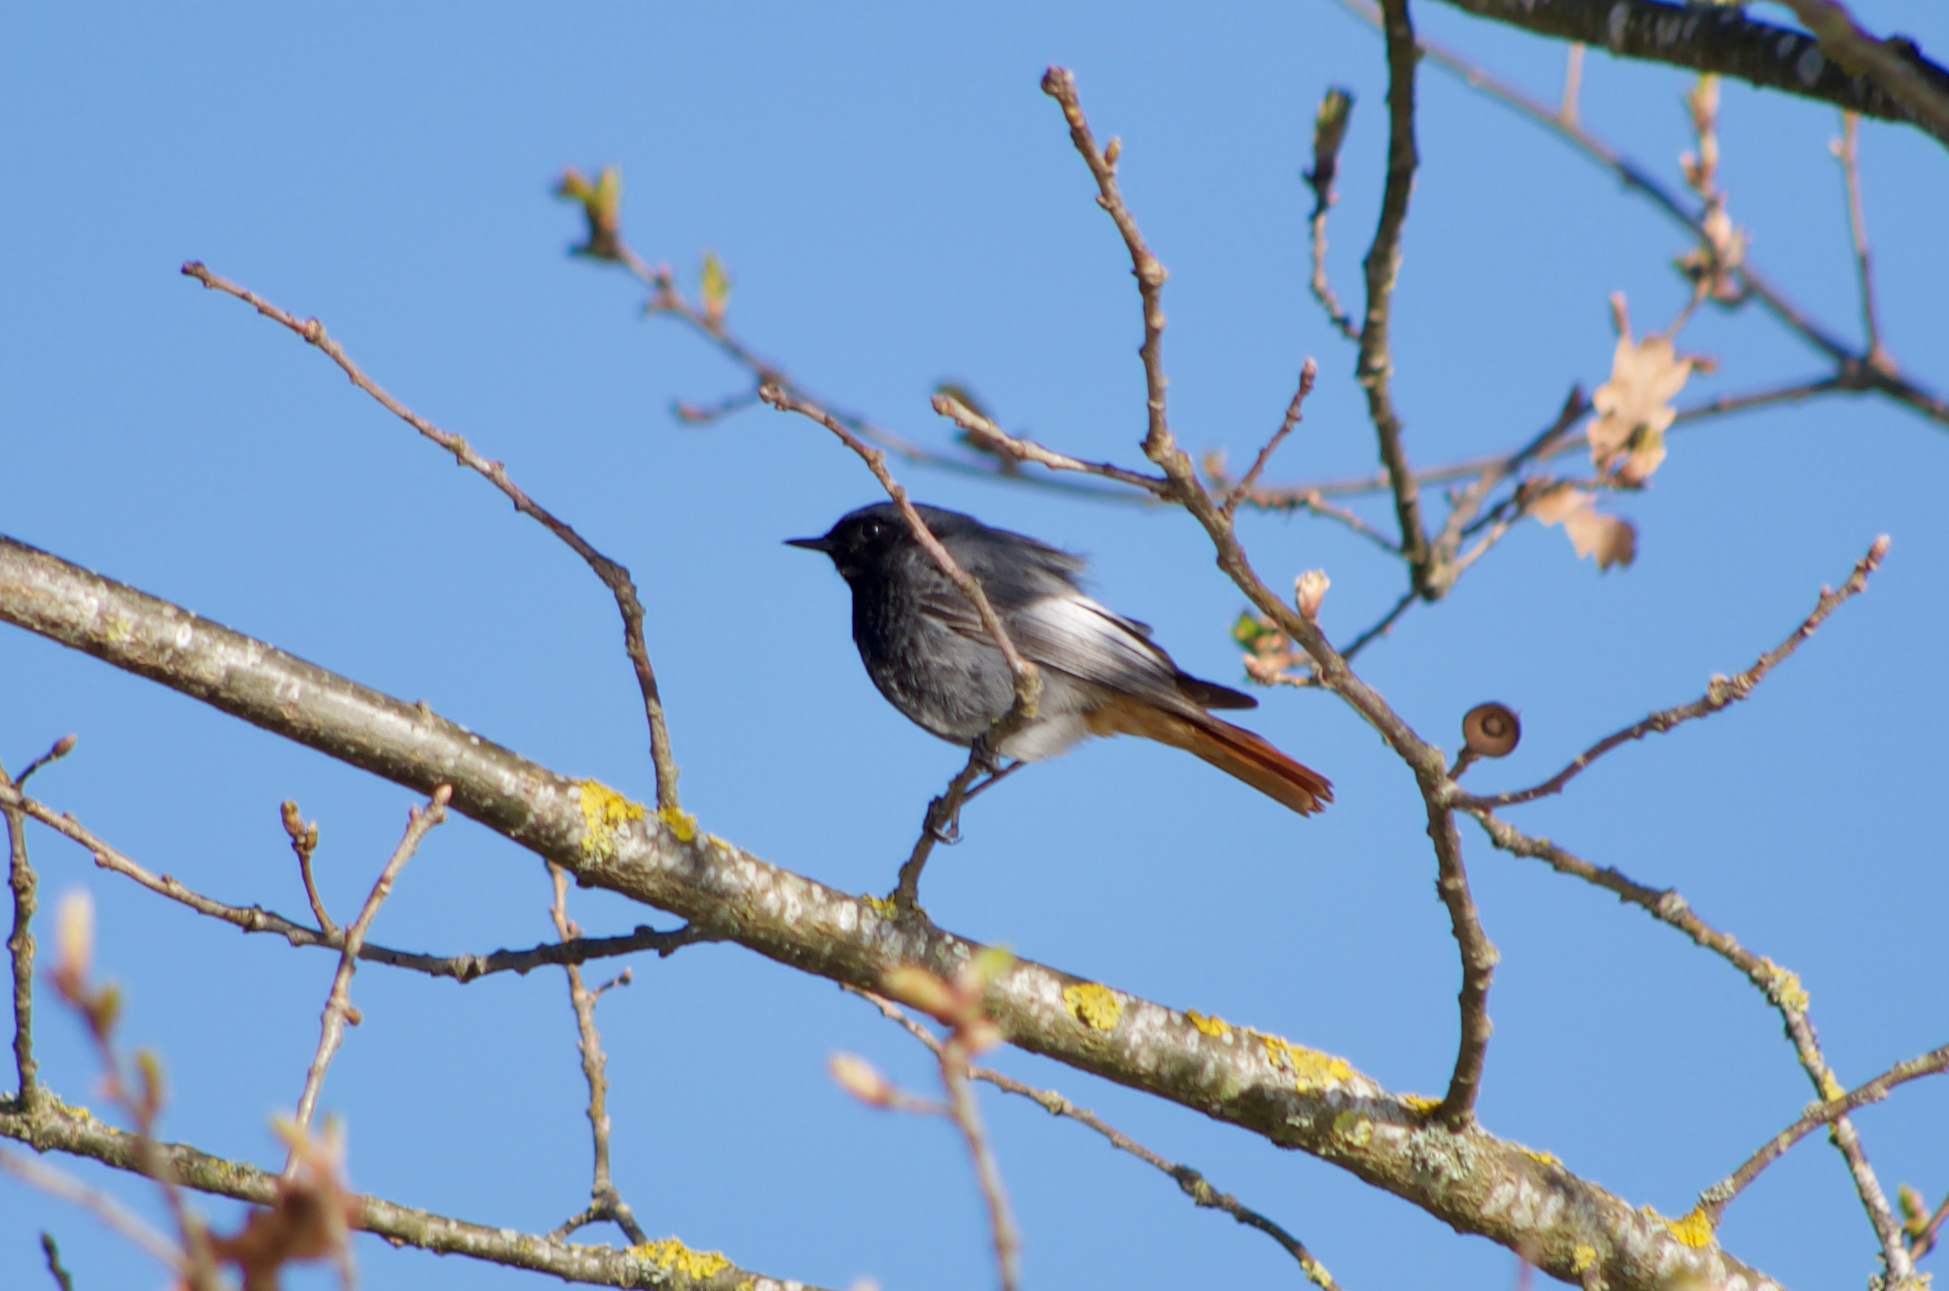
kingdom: Animalia
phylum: Chordata
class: Aves
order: Passeriformes
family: Muscicapidae
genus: Phoenicurus
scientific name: Phoenicurus ochruros
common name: Black redstart
